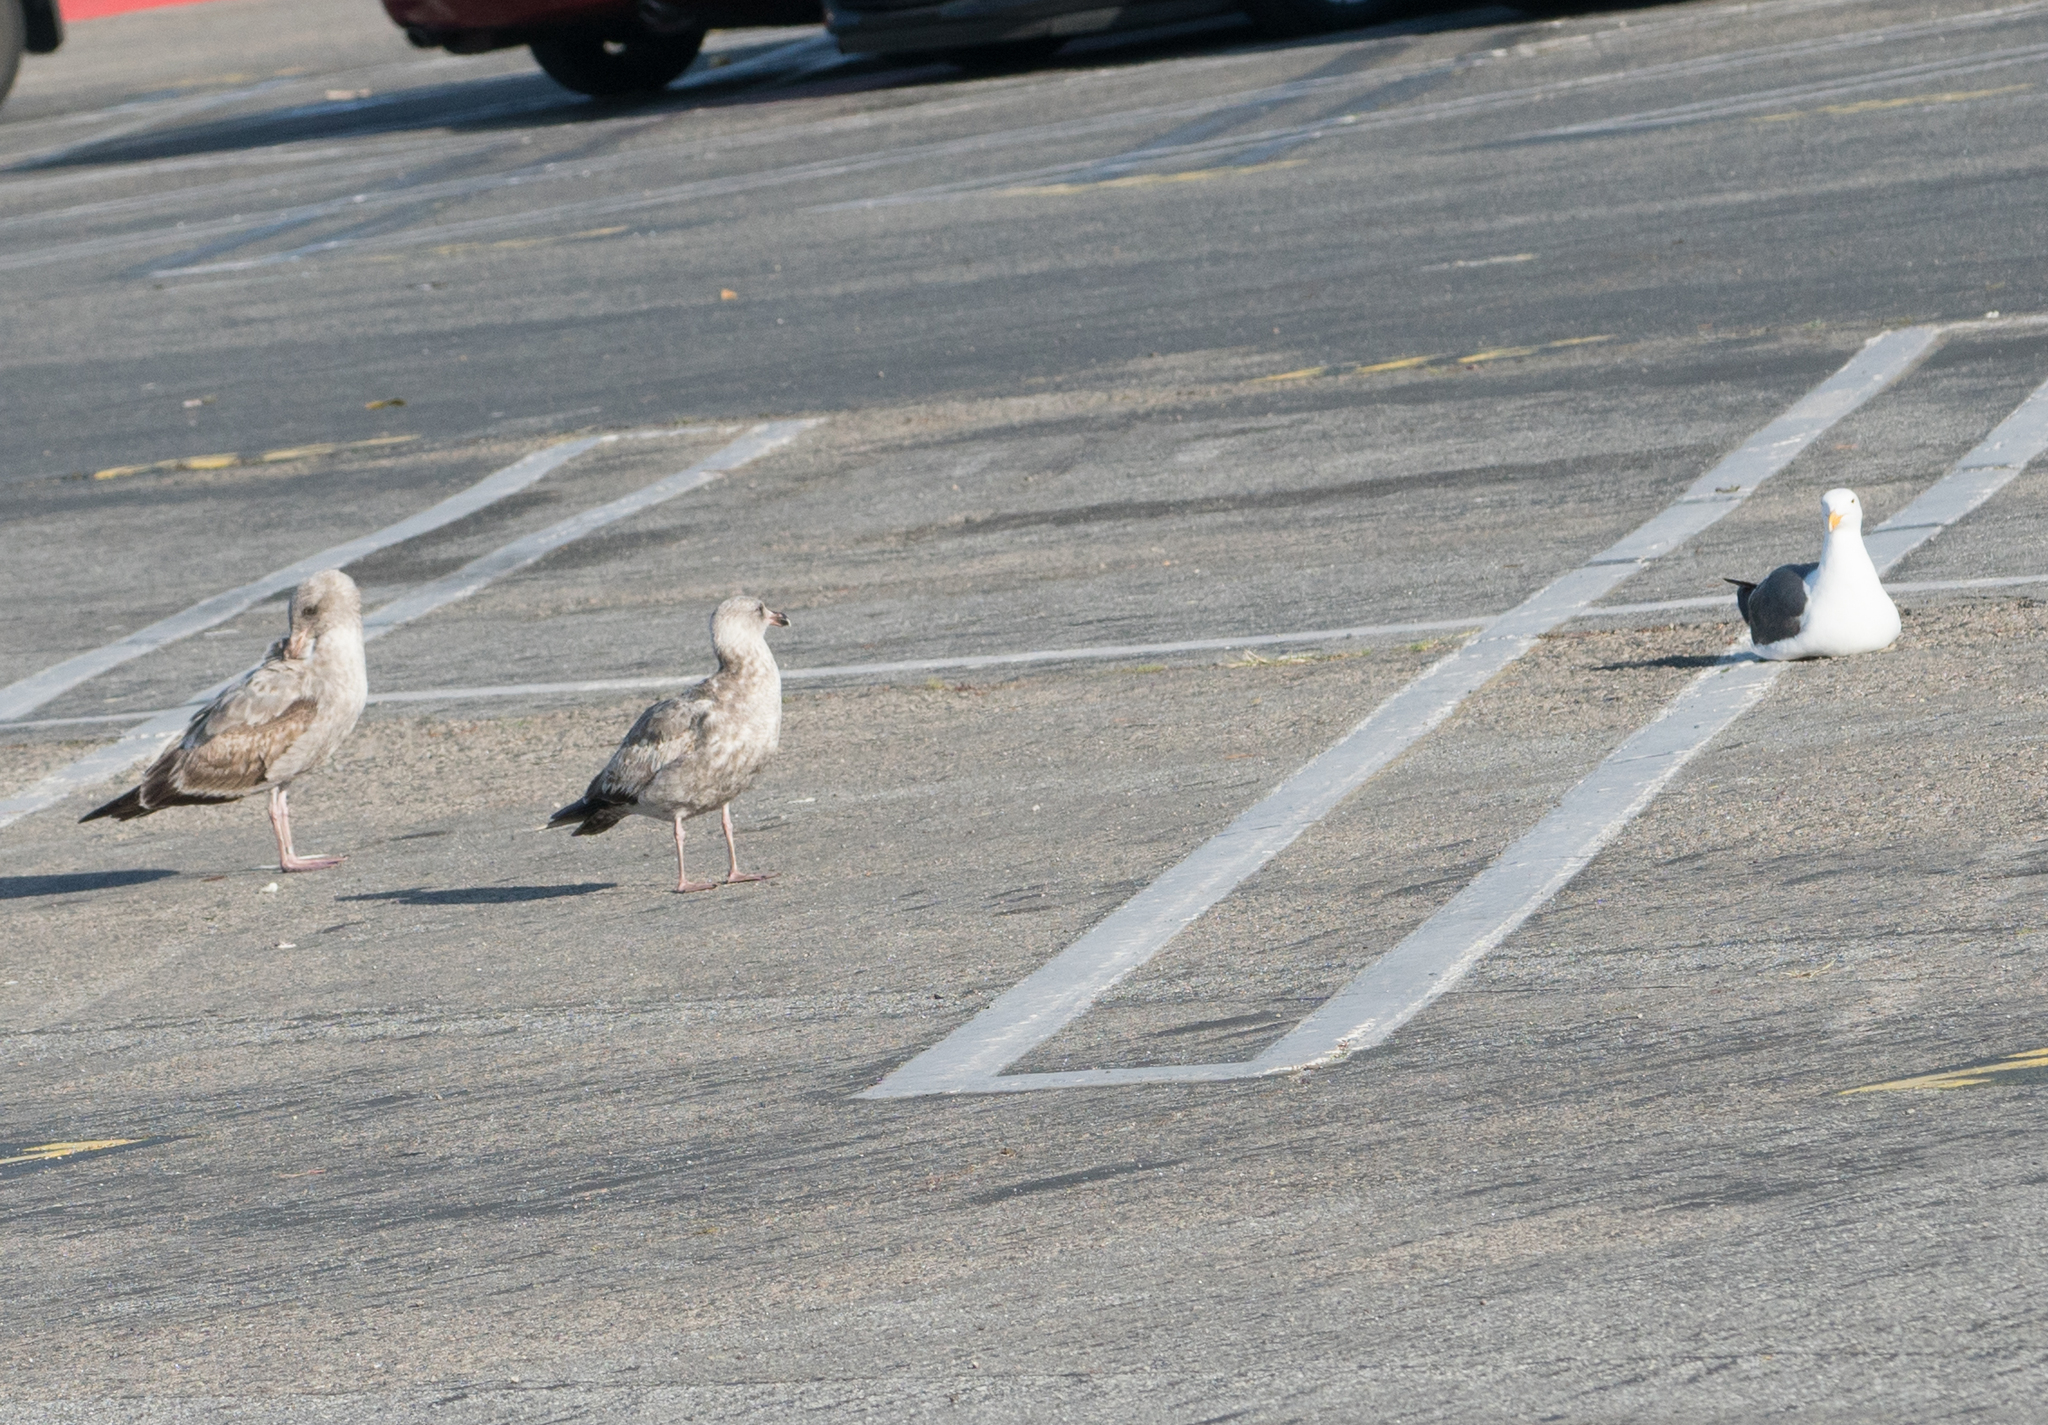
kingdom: Animalia
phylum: Chordata
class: Aves
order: Charadriiformes
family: Laridae
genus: Larus
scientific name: Larus occidentalis
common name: Western gull
